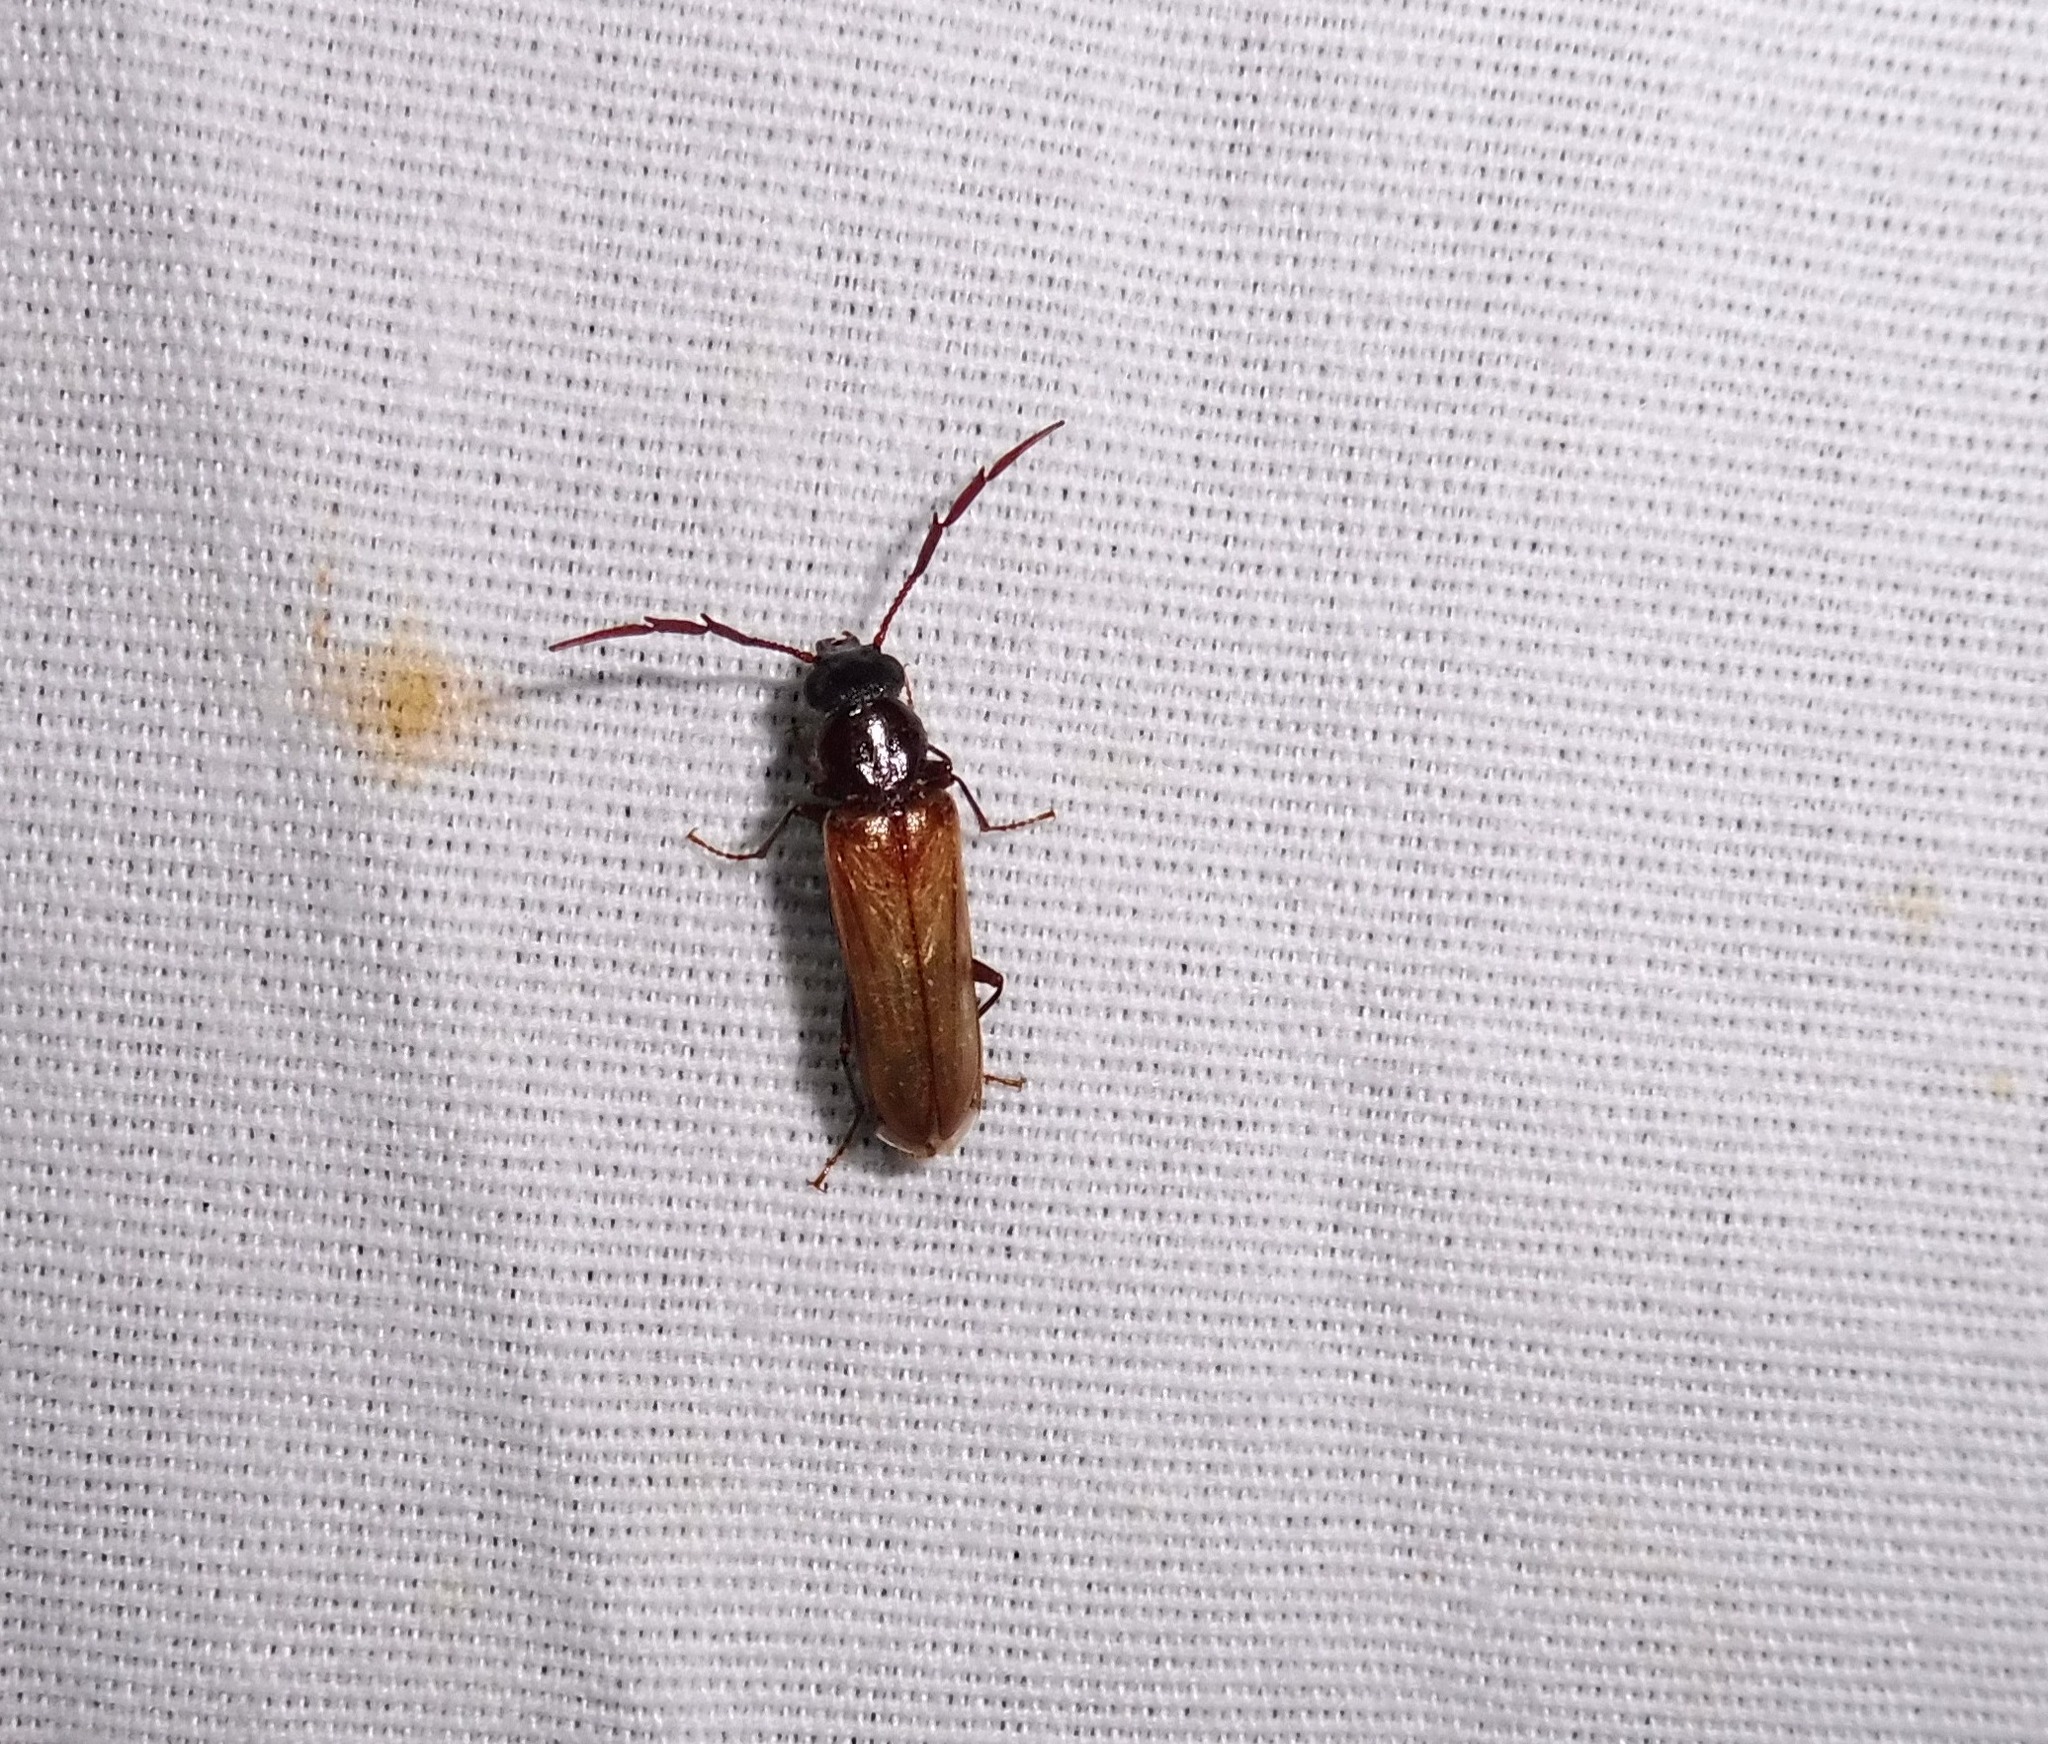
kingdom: Animalia
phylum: Arthropoda
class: Insecta
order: Coleoptera
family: Pythidae
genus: Trimitomerus
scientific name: Trimitomerus riversii
